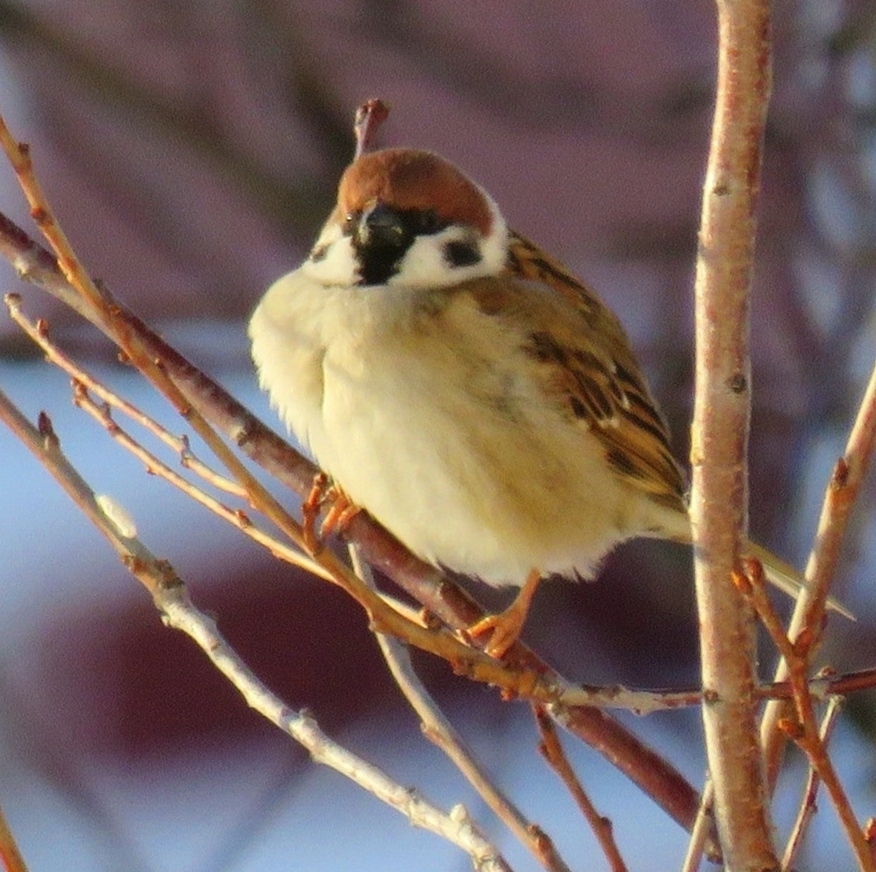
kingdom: Animalia
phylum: Chordata
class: Aves
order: Passeriformes
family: Passeridae
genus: Passer
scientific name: Passer montanus
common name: Eurasian tree sparrow
